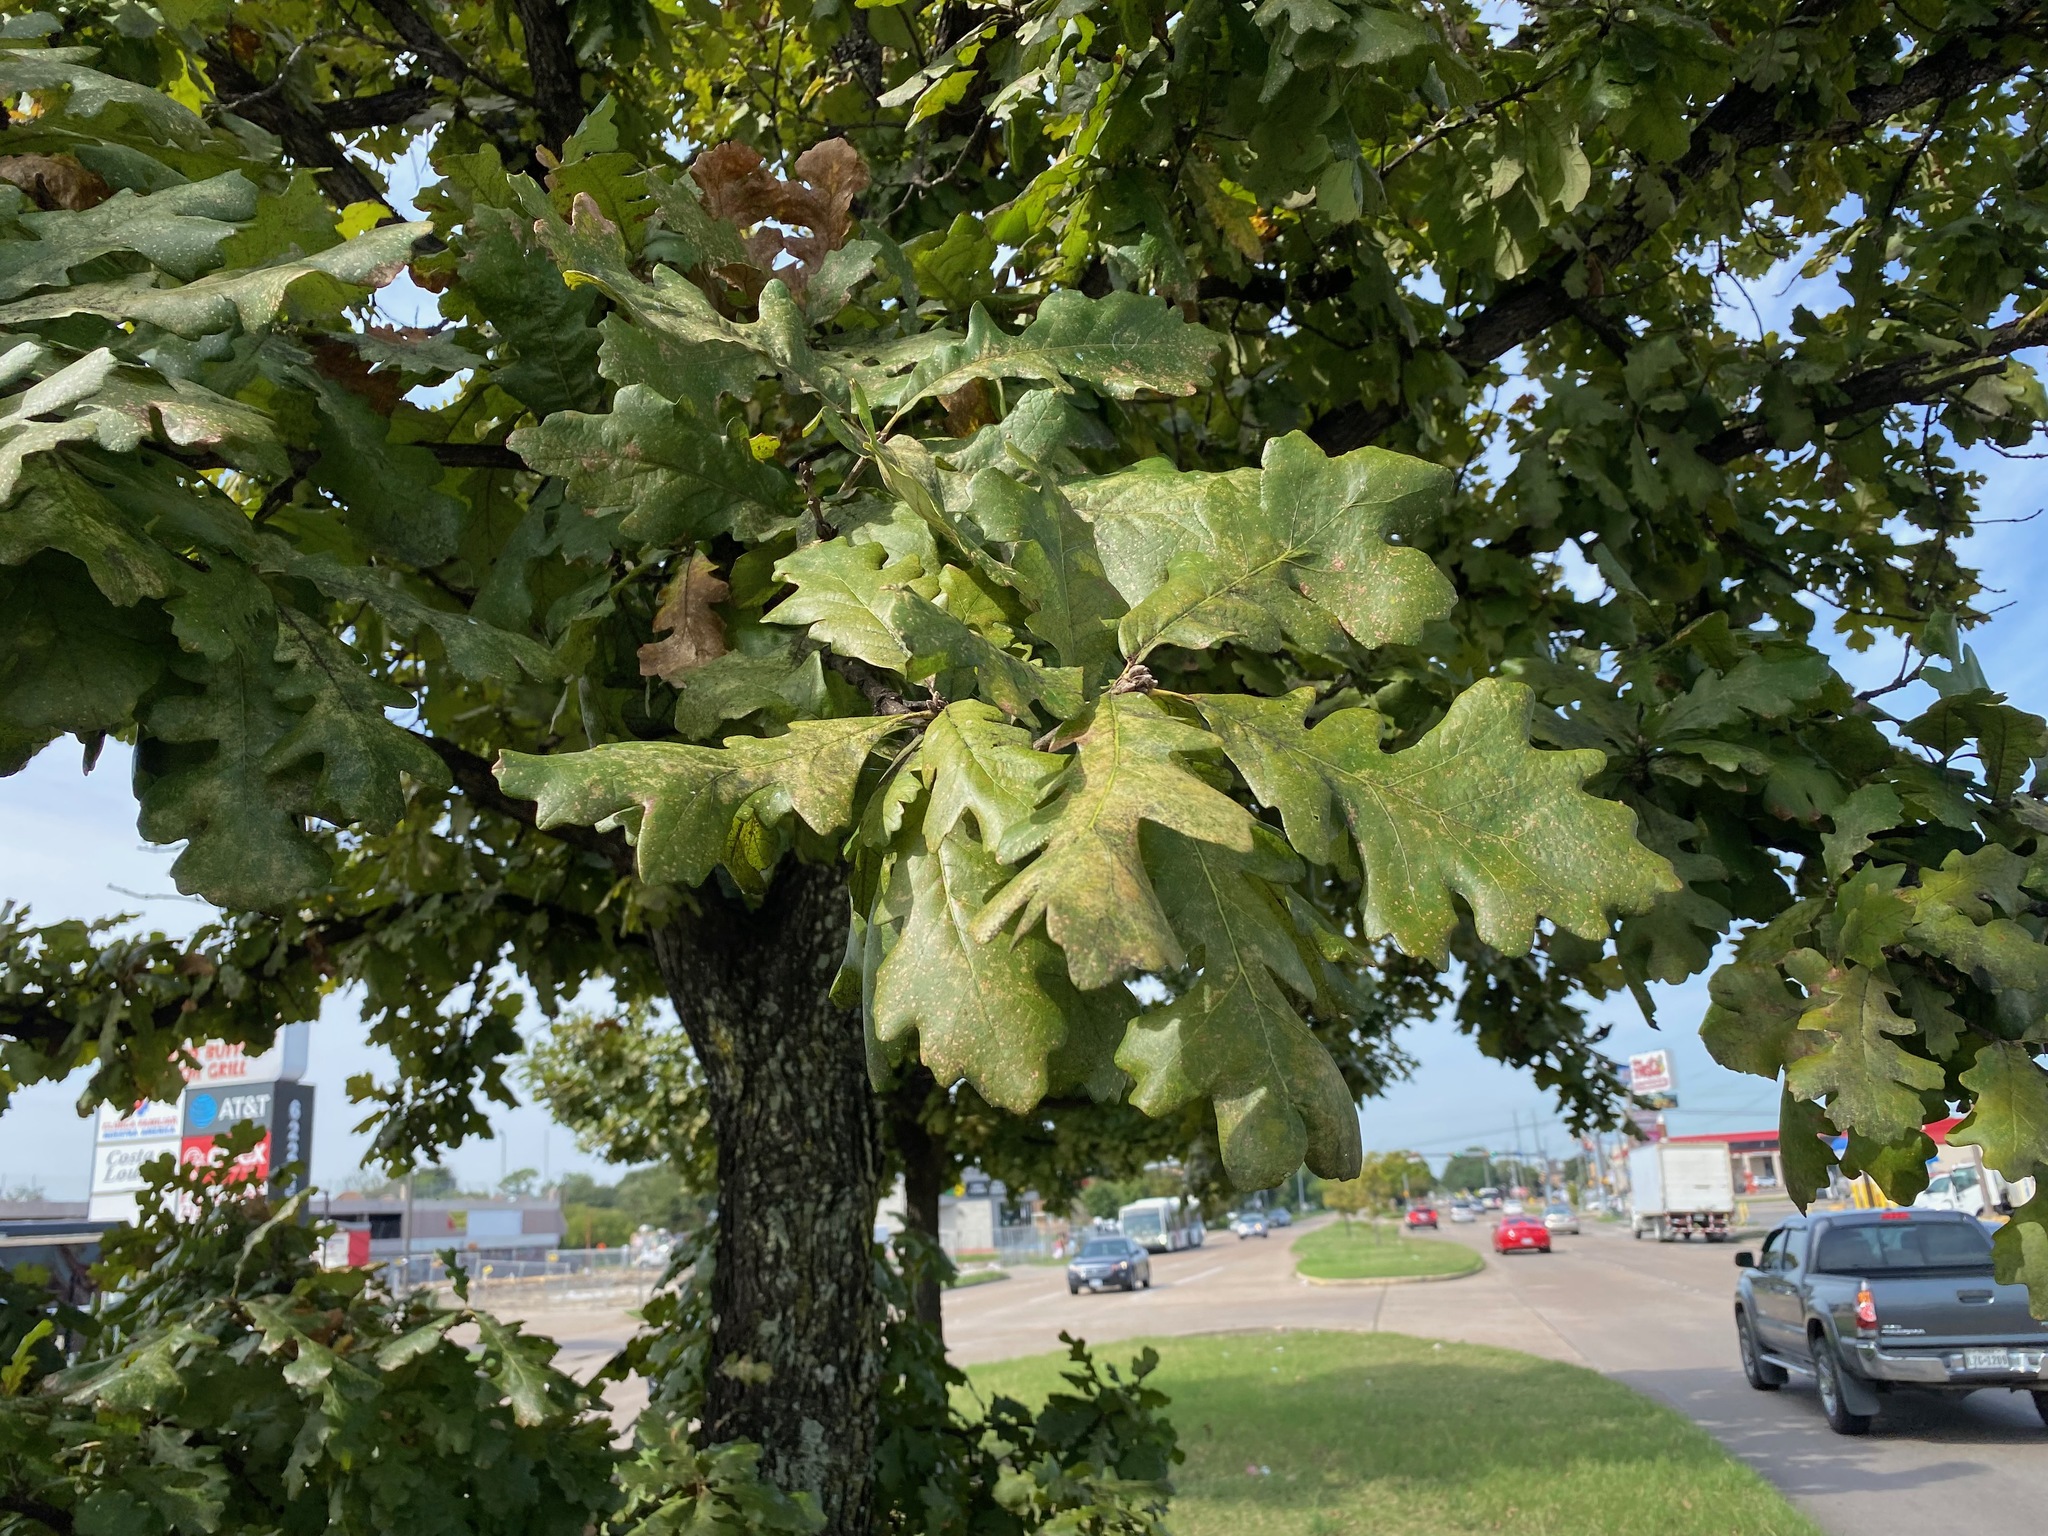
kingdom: Plantae
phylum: Tracheophyta
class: Magnoliopsida
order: Fagales
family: Fagaceae
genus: Quercus
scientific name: Quercus macrocarpa
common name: Bur oak
